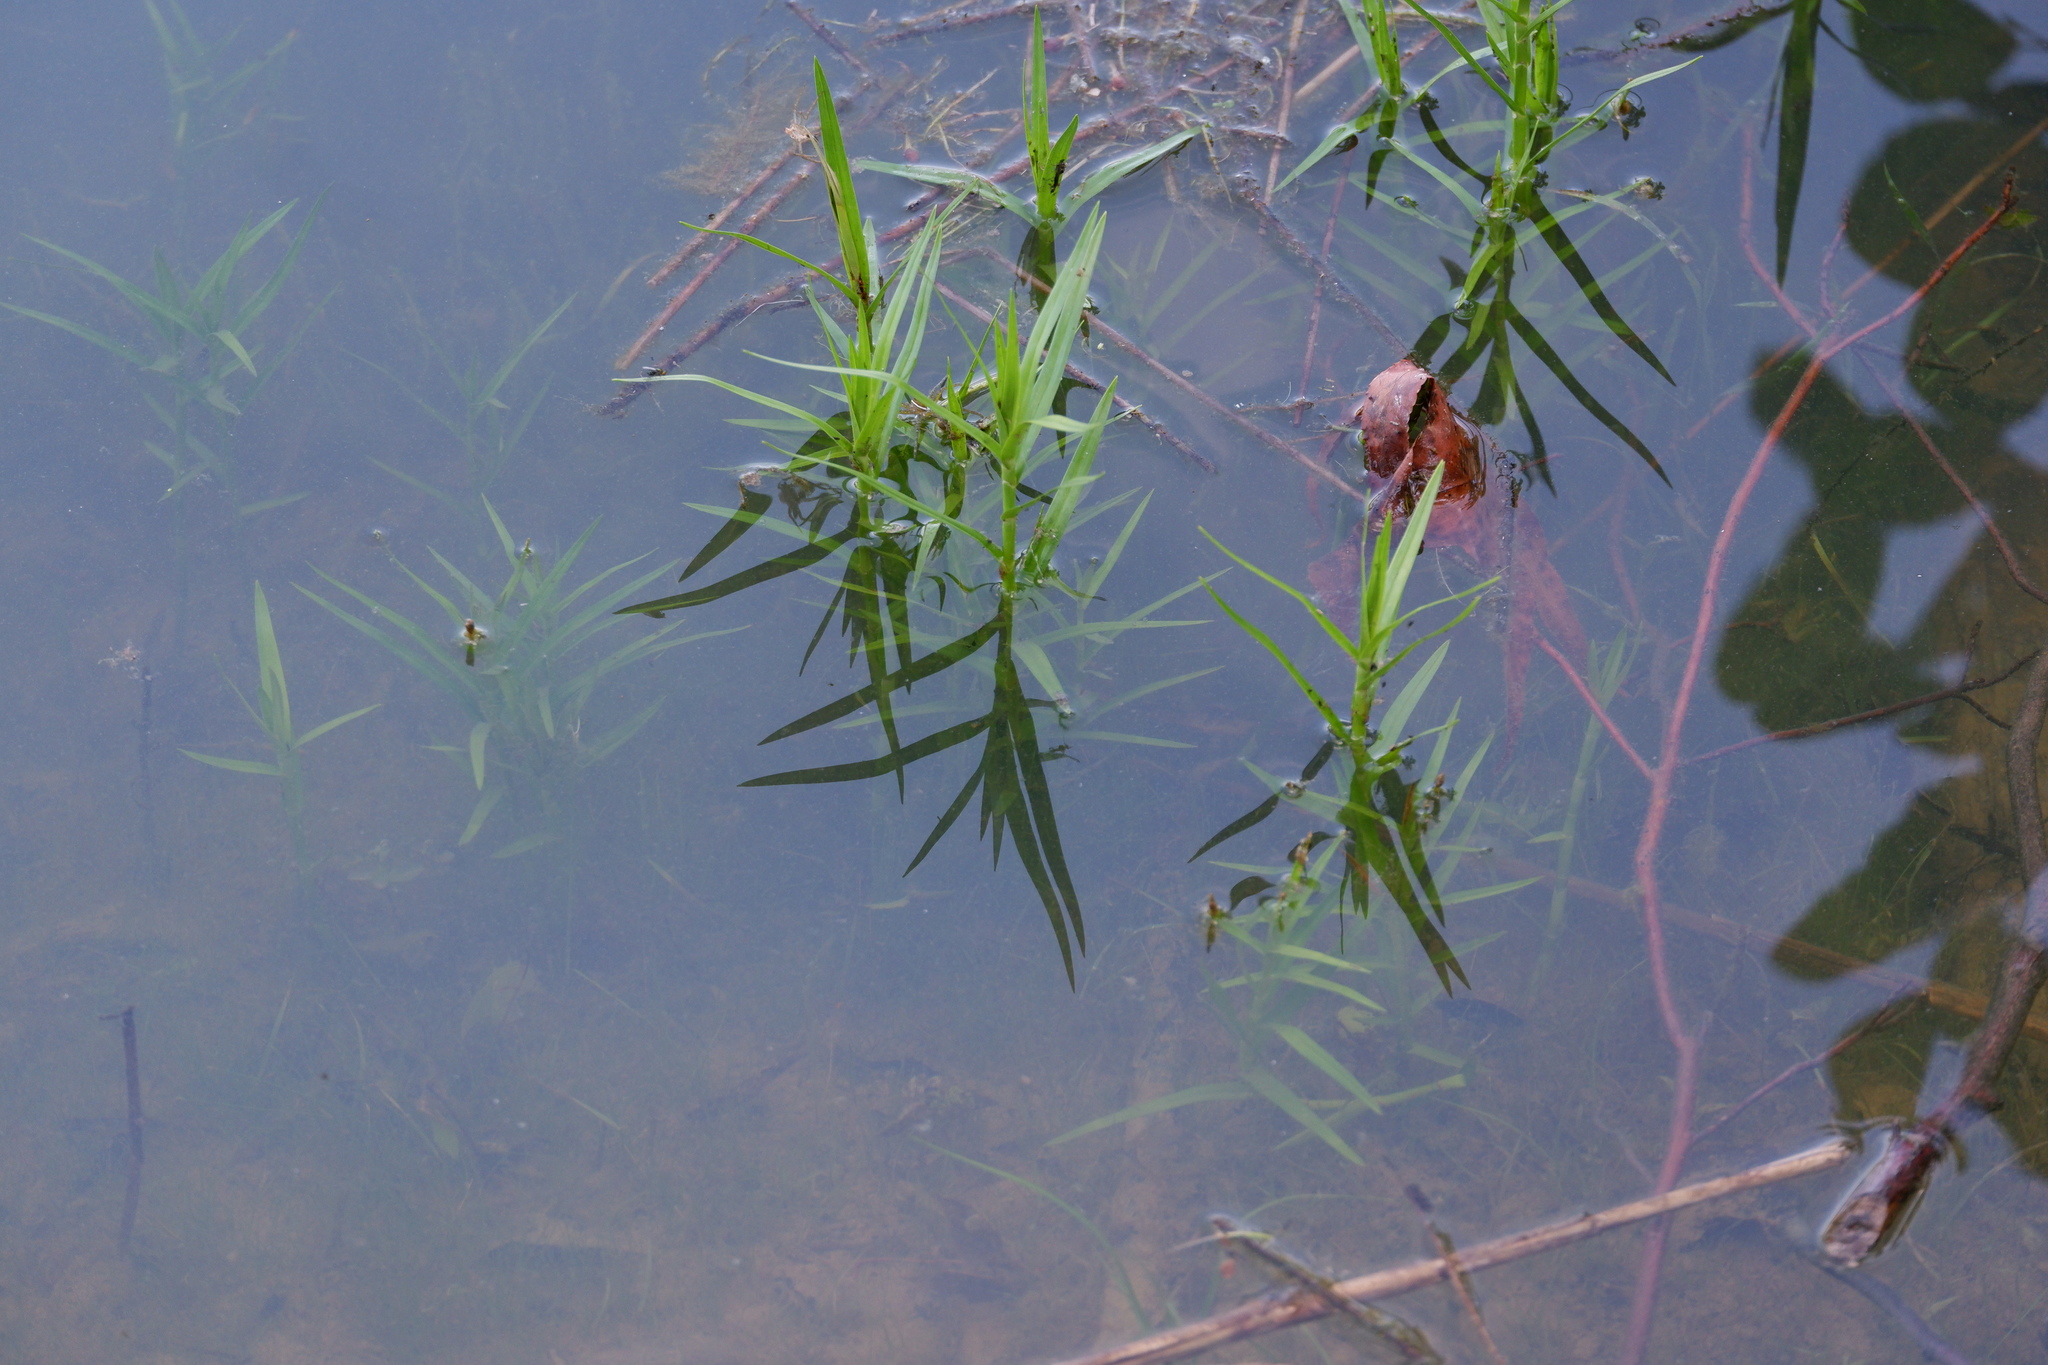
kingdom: Plantae
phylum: Tracheophyta
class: Liliopsida
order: Poales
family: Cyperaceae
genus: Dulichium
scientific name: Dulichium arundinaceum
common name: Three-way sedge
